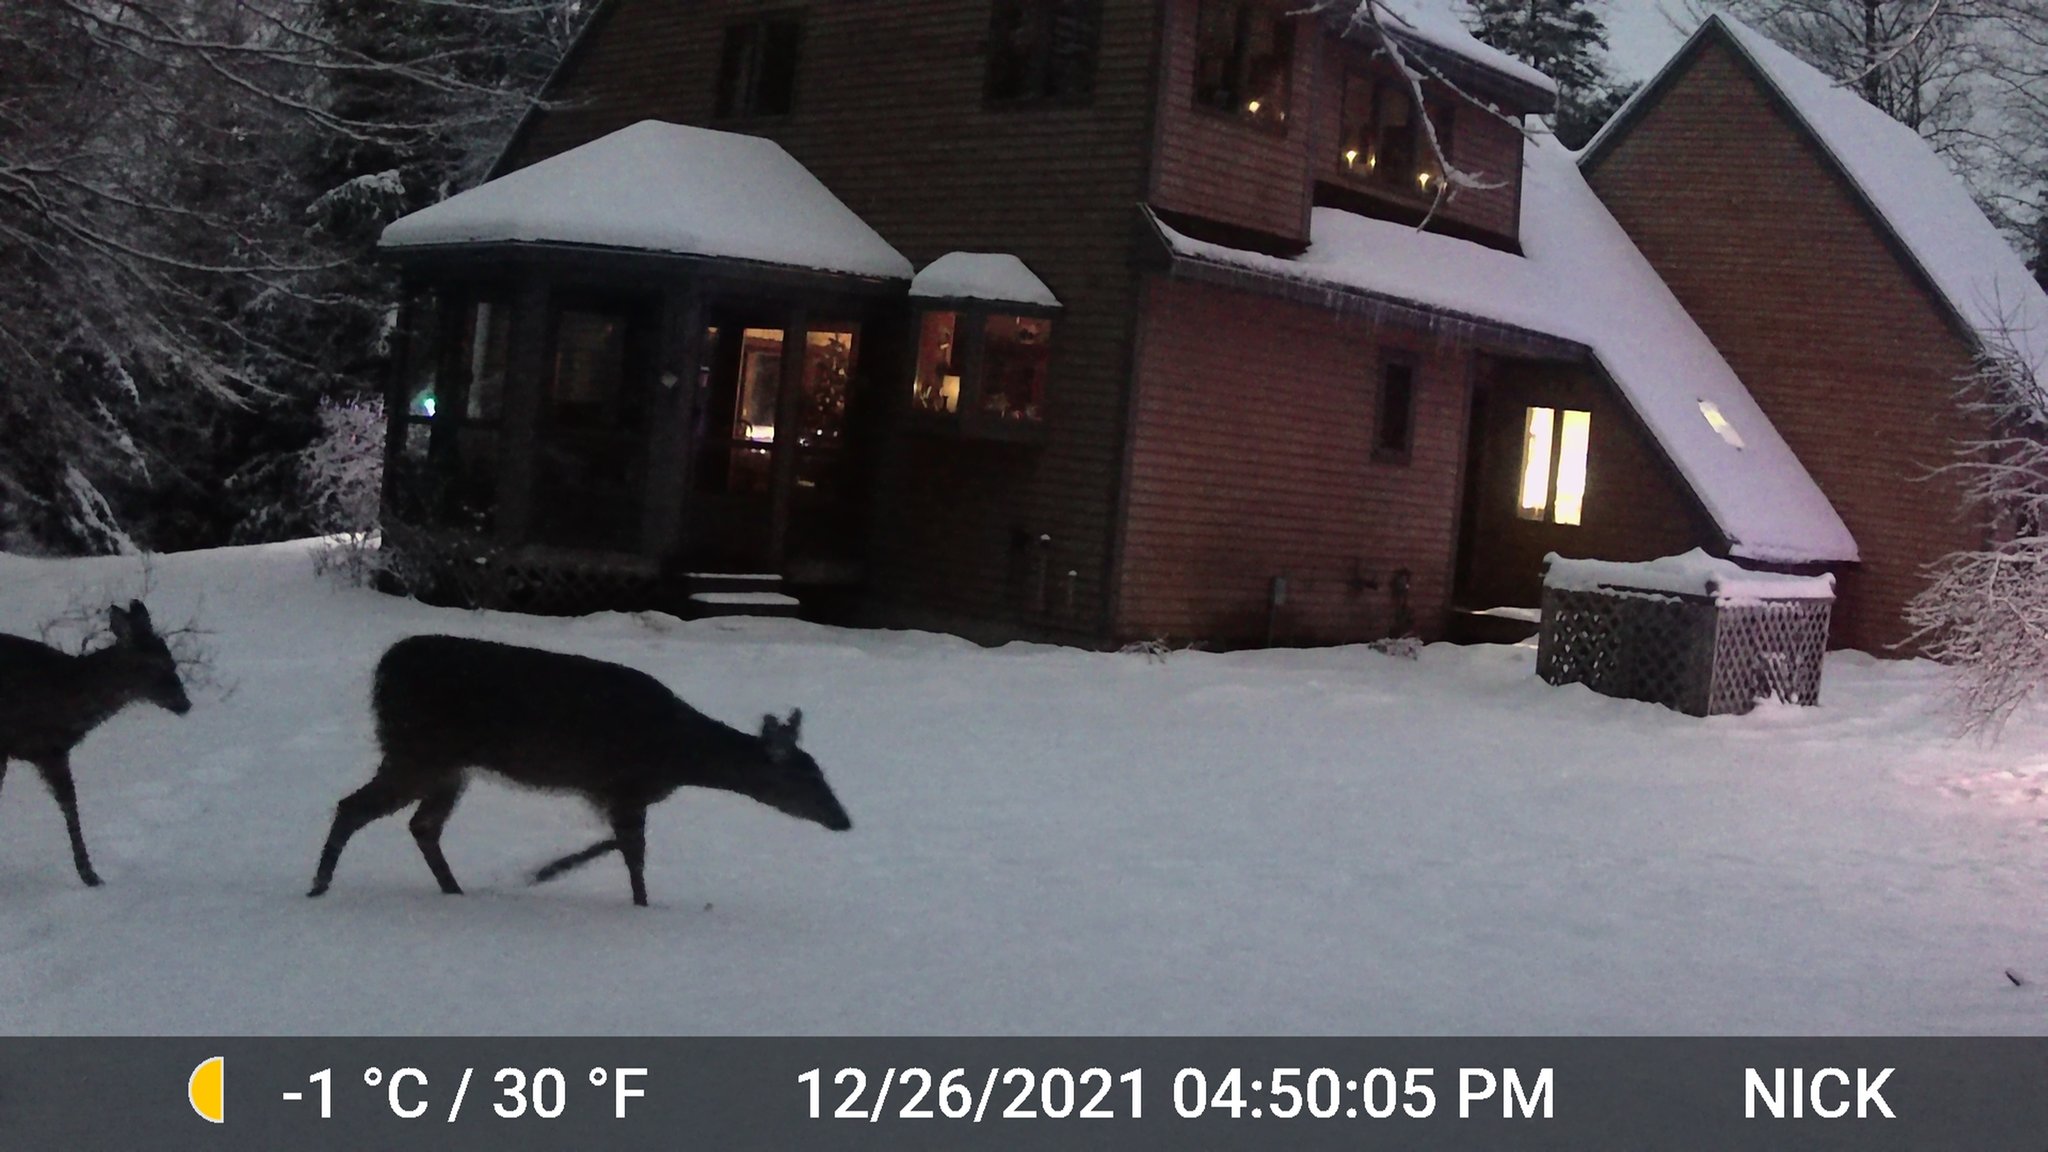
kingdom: Animalia
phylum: Chordata
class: Mammalia
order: Artiodactyla
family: Cervidae
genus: Odocoileus
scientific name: Odocoileus virginianus
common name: White-tailed deer
